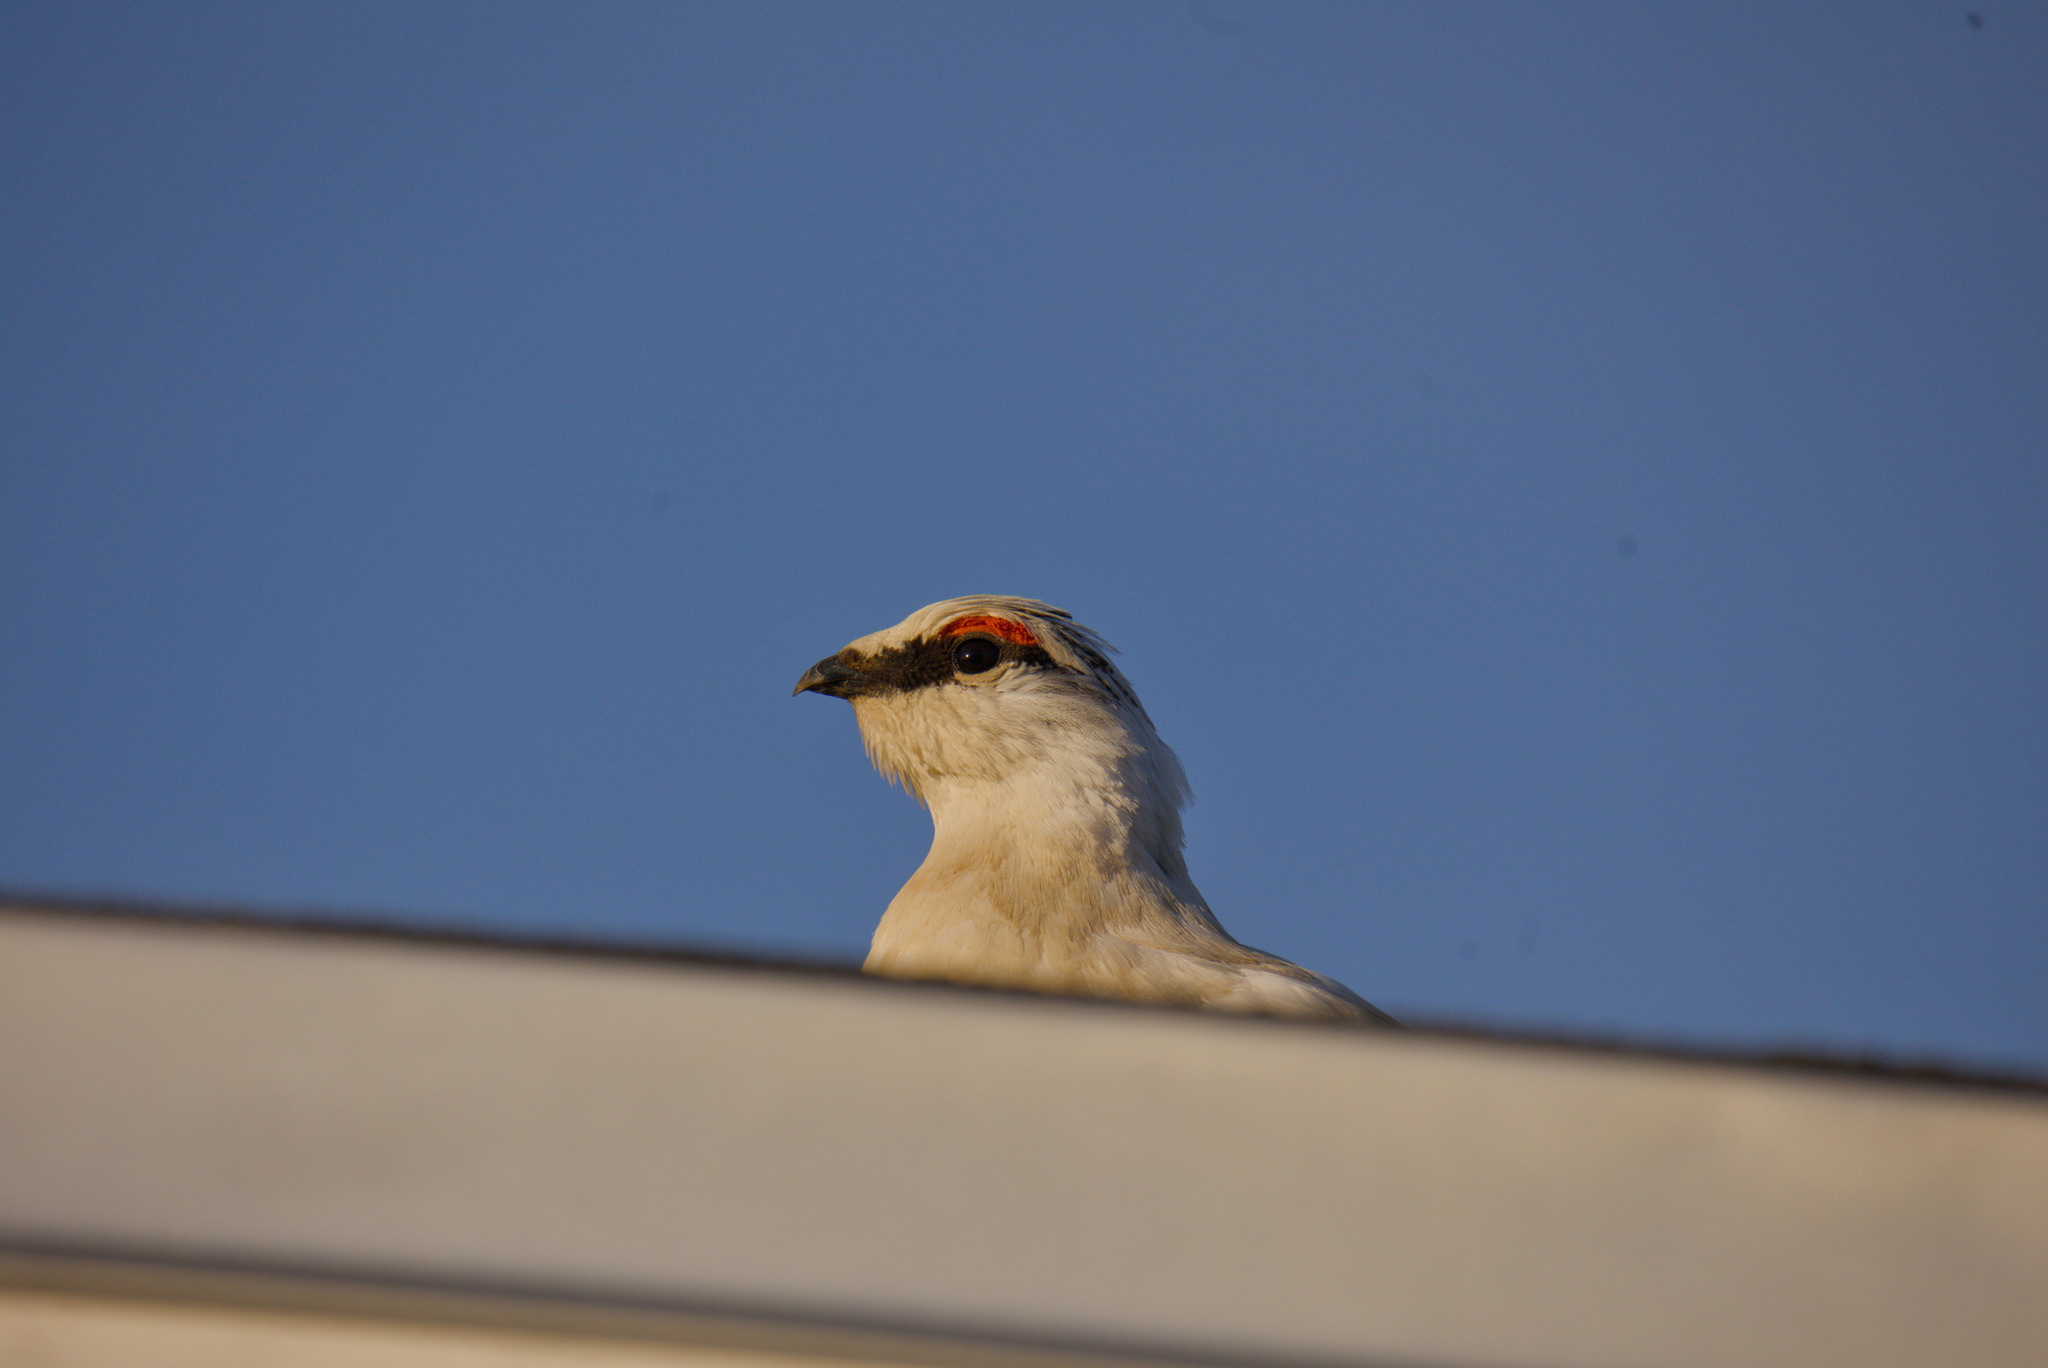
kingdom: Animalia
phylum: Chordata
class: Aves
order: Galliformes
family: Phasianidae
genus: Lagopus
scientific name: Lagopus muta
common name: Rock ptarmigan
